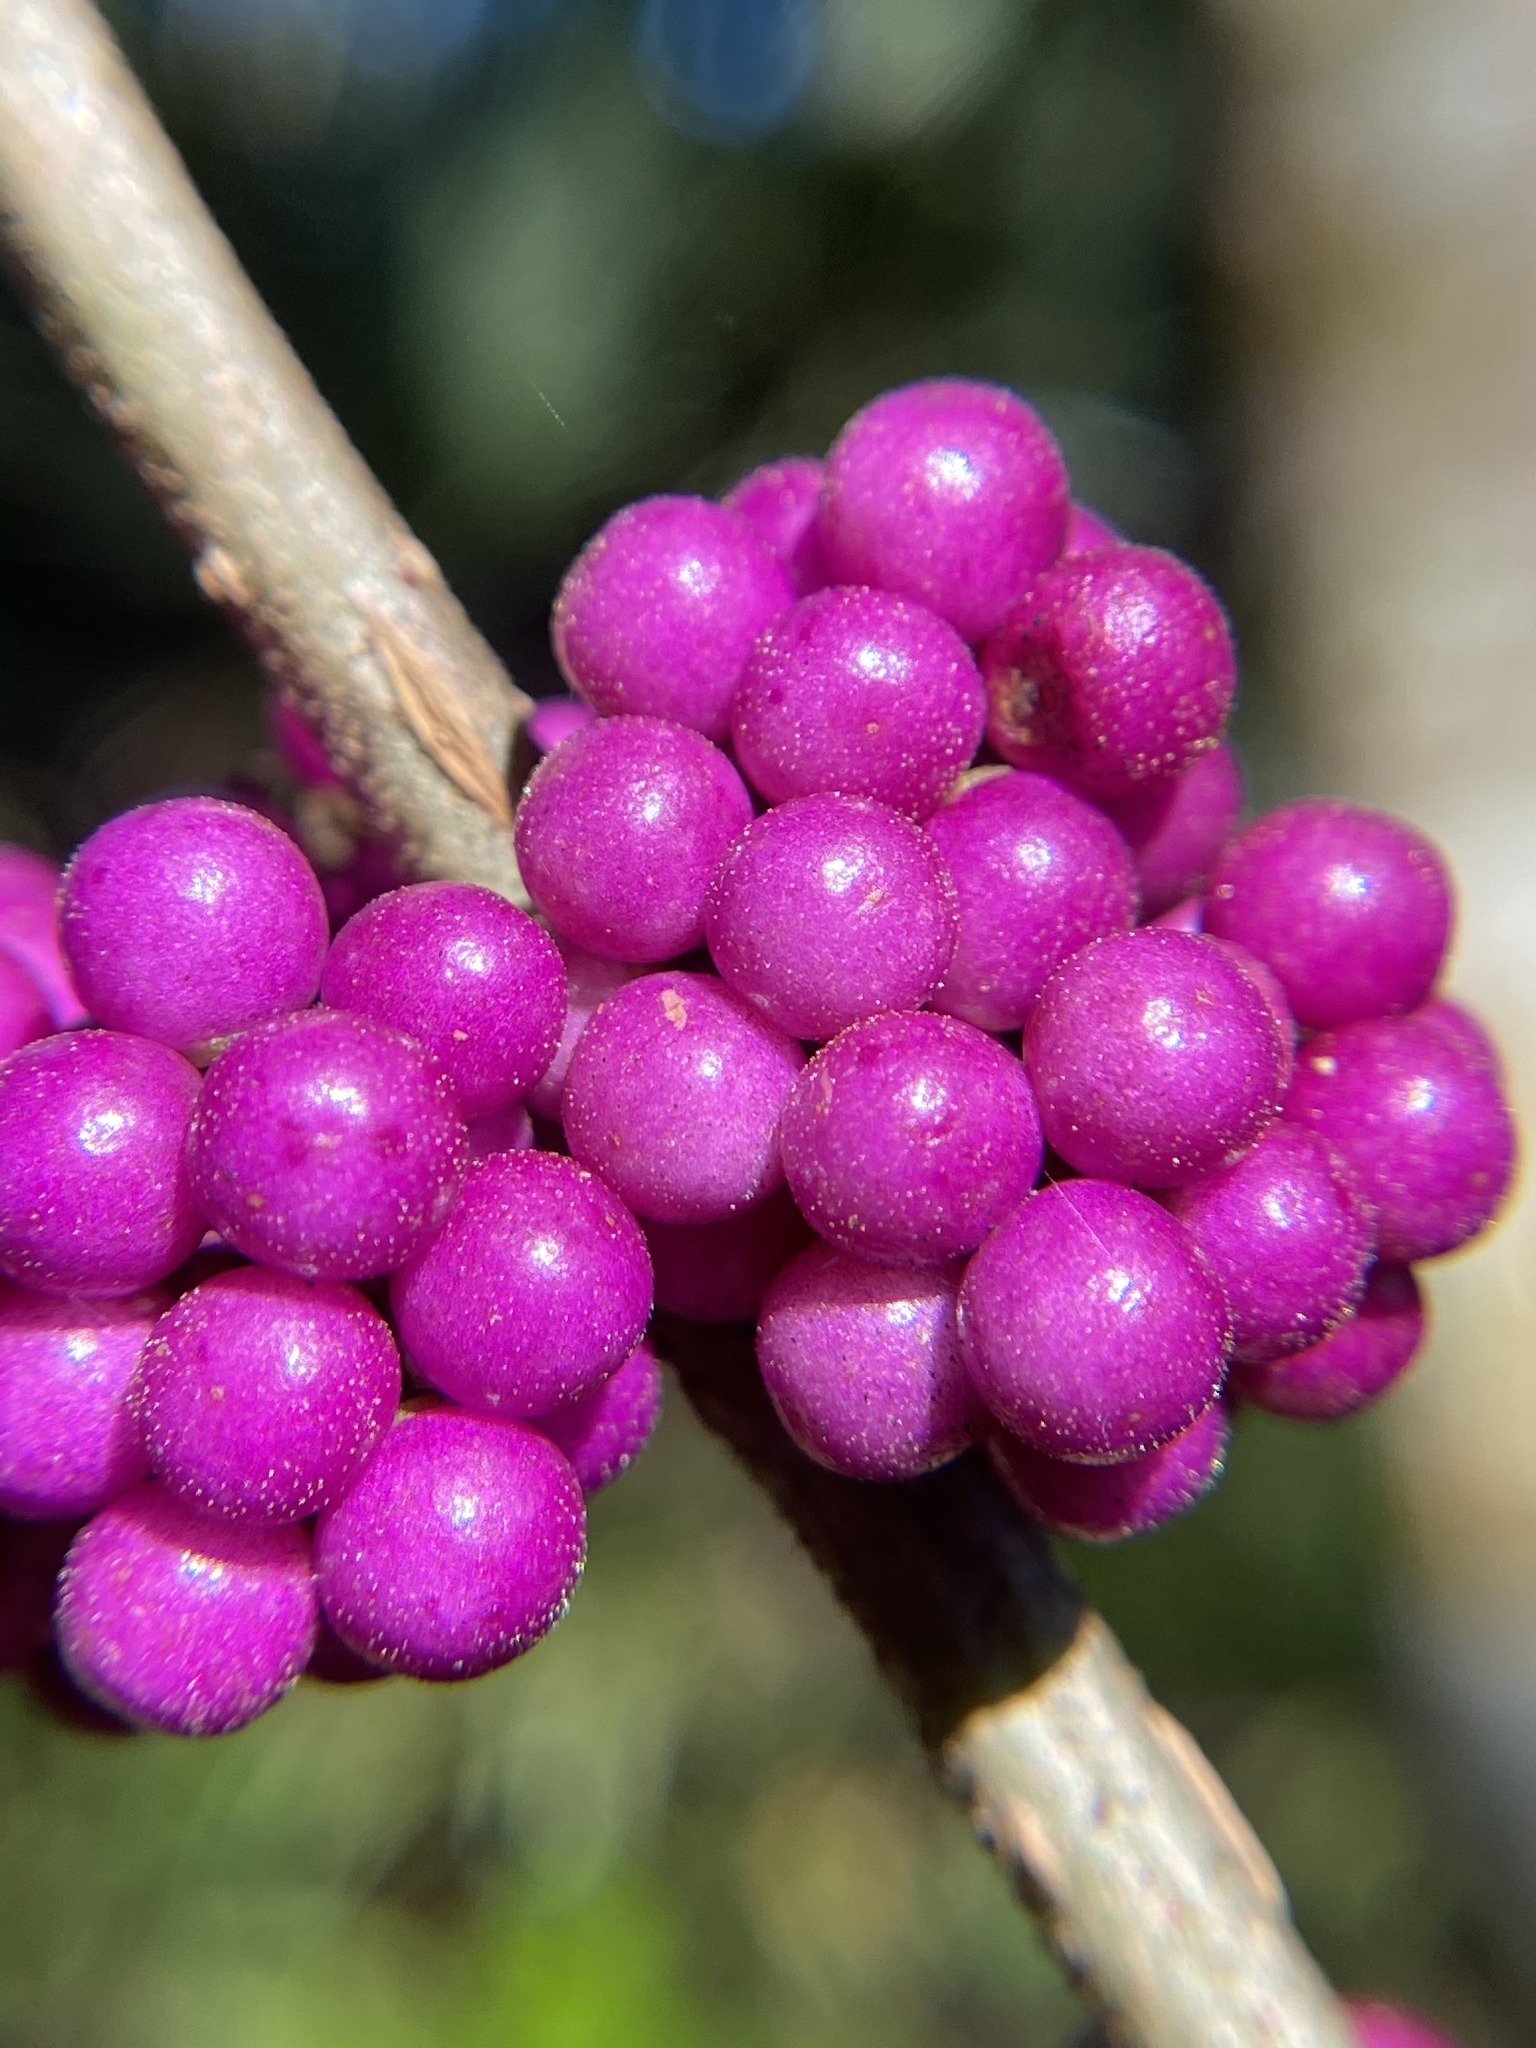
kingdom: Plantae
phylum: Tracheophyta
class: Magnoliopsida
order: Lamiales
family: Lamiaceae
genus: Callicarpa
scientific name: Callicarpa americana
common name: American beautyberry
